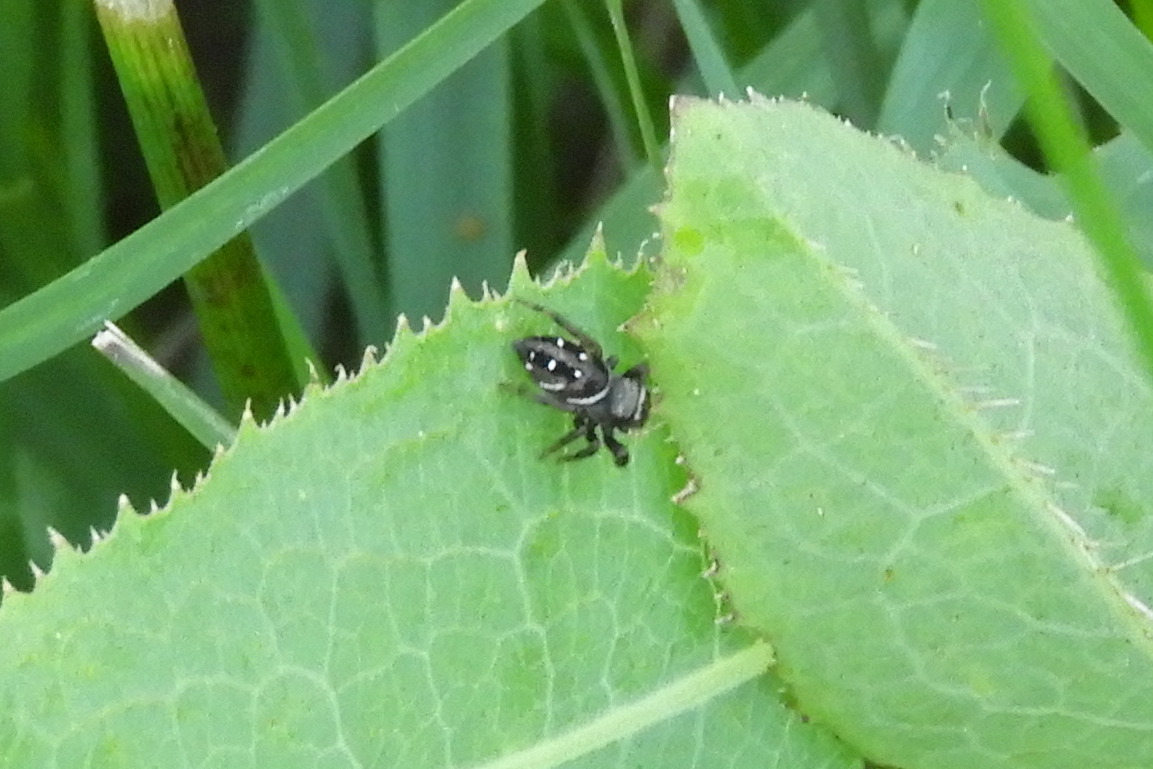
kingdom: Animalia
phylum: Arthropoda
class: Arachnida
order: Araneae
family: Salticidae
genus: Phidippus
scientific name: Phidippus clarus
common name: Brilliant jumping spider
